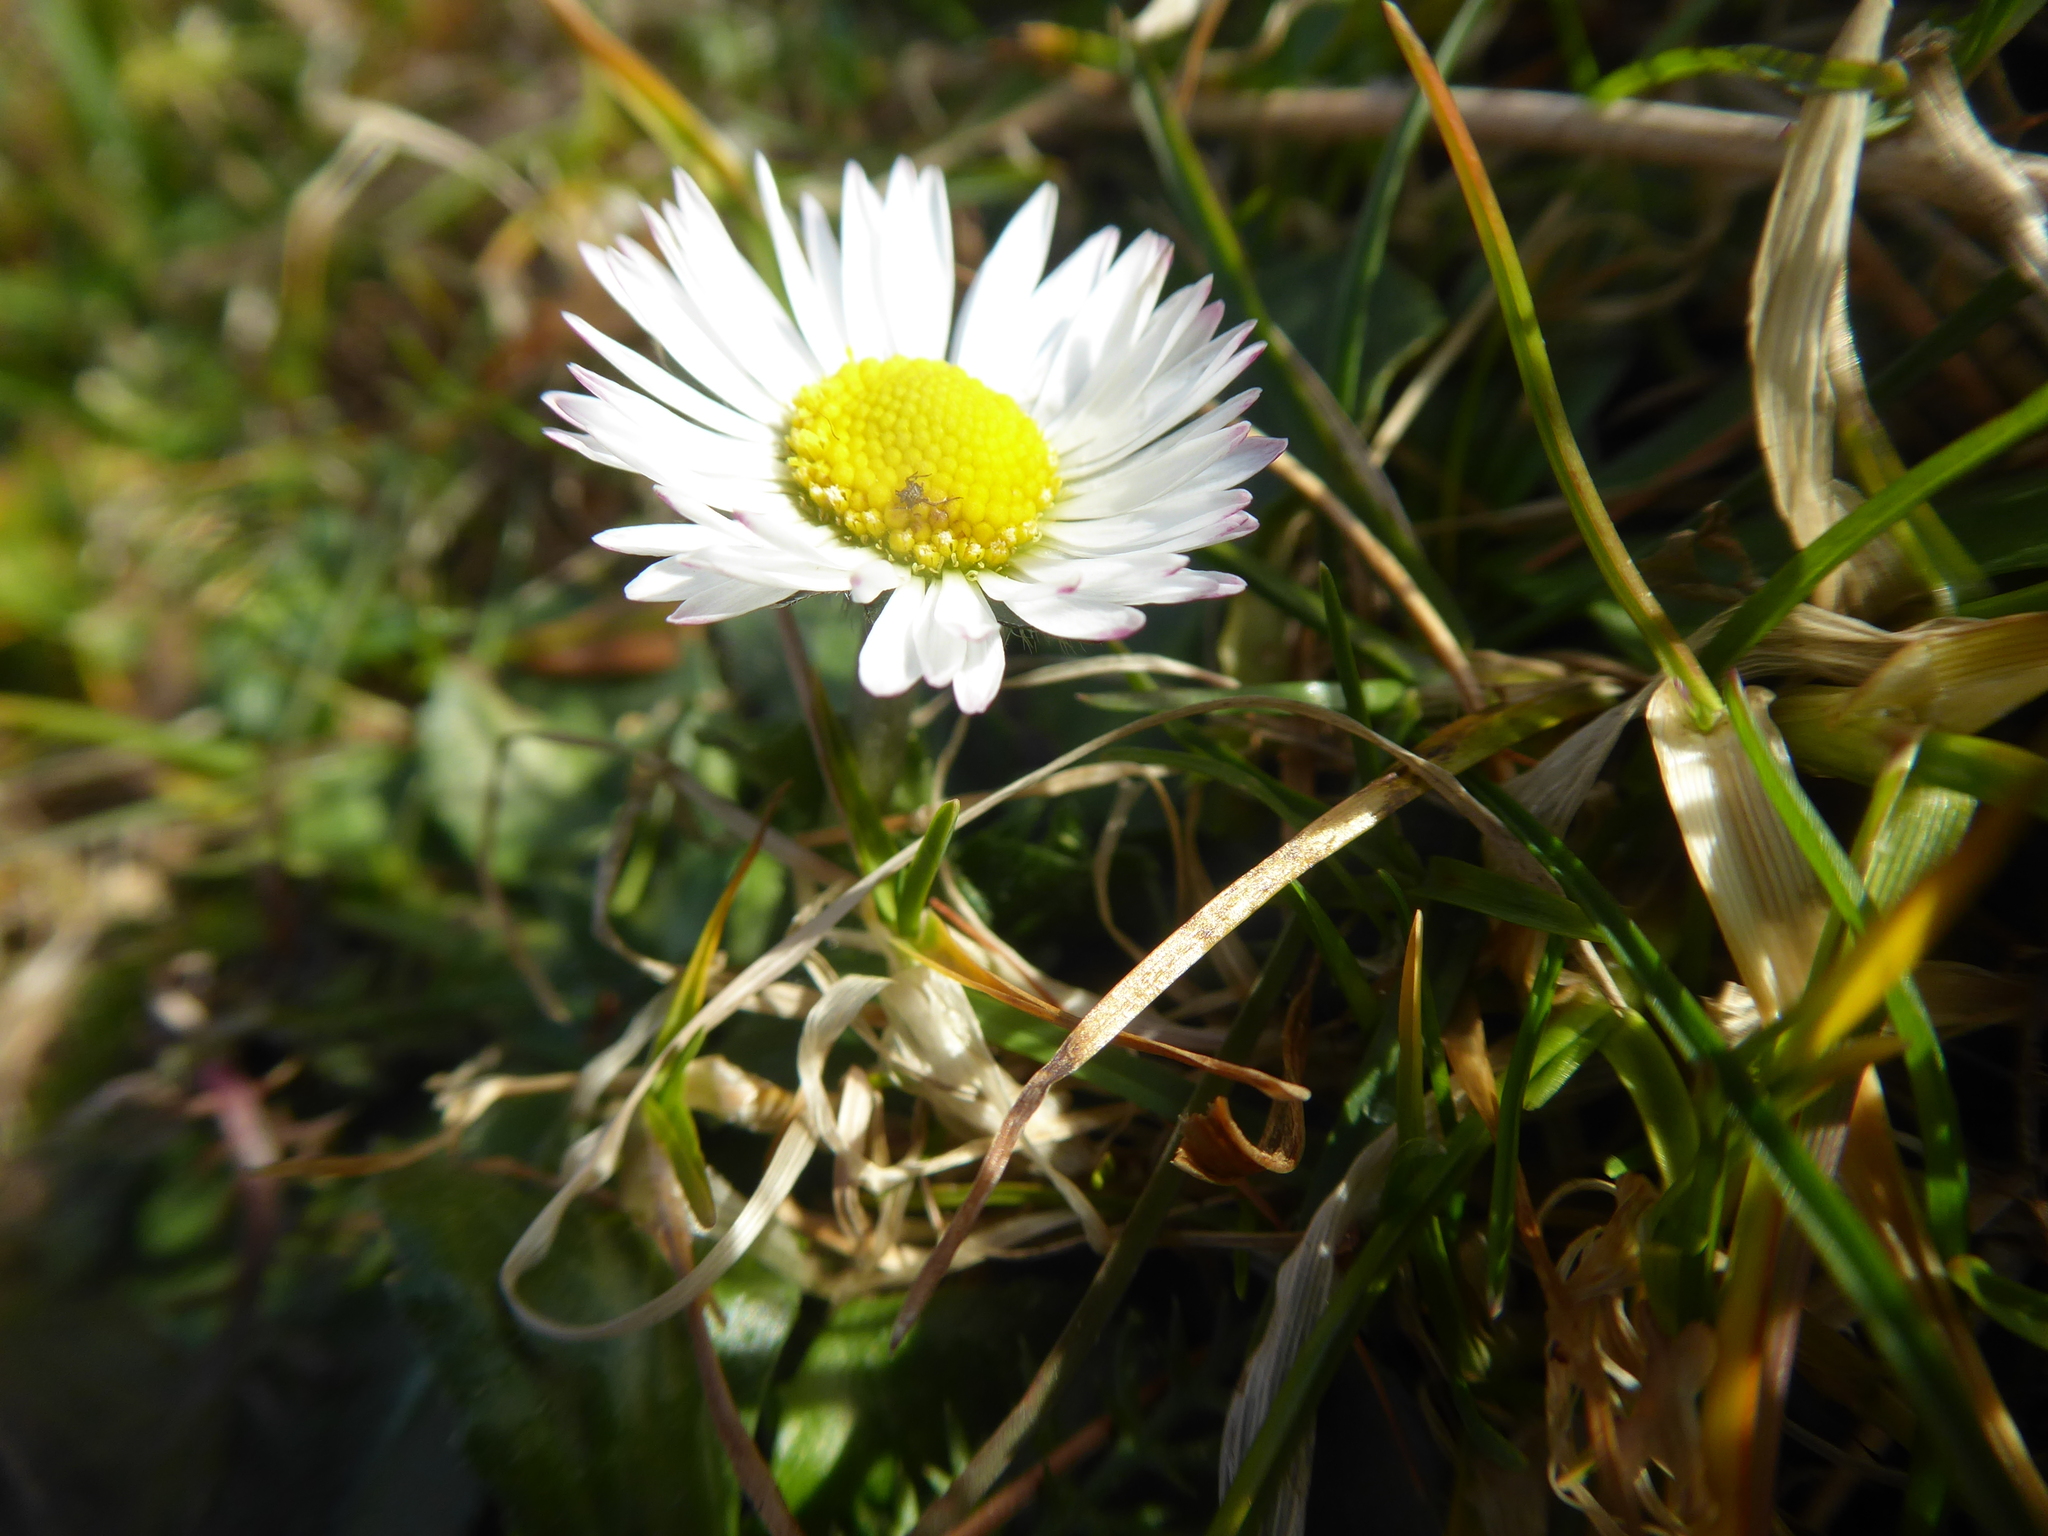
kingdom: Plantae
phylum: Tracheophyta
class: Magnoliopsida
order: Asterales
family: Asteraceae
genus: Bellis
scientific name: Bellis perennis
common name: Lawndaisy
